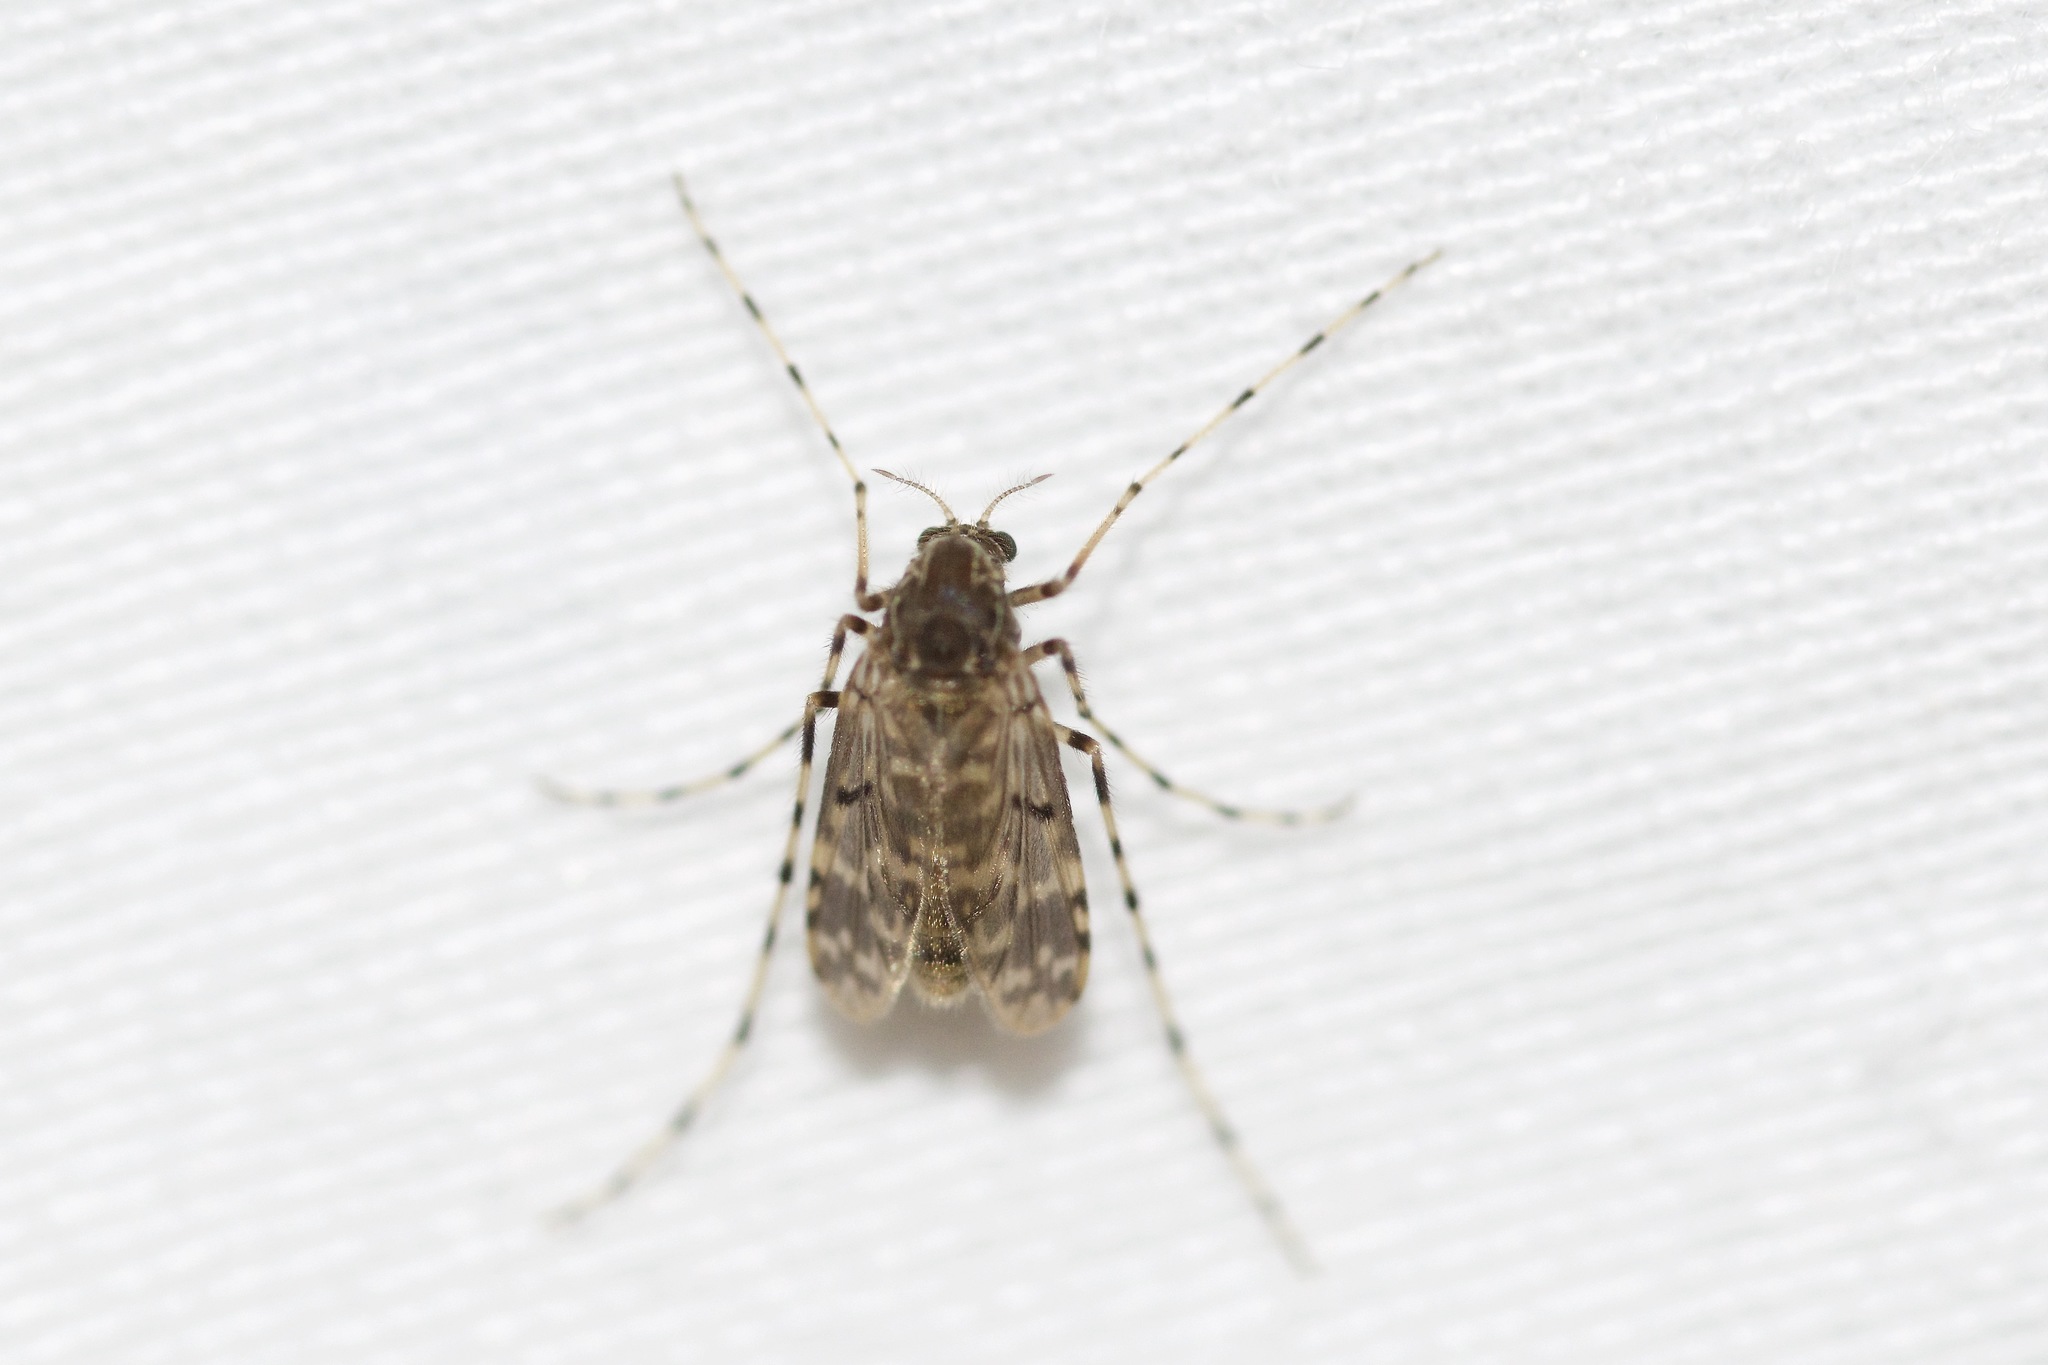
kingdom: Animalia
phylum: Arthropoda
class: Insecta
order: Diptera
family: Chironomidae
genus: Ablabesmyia
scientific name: Ablabesmyia annulata
